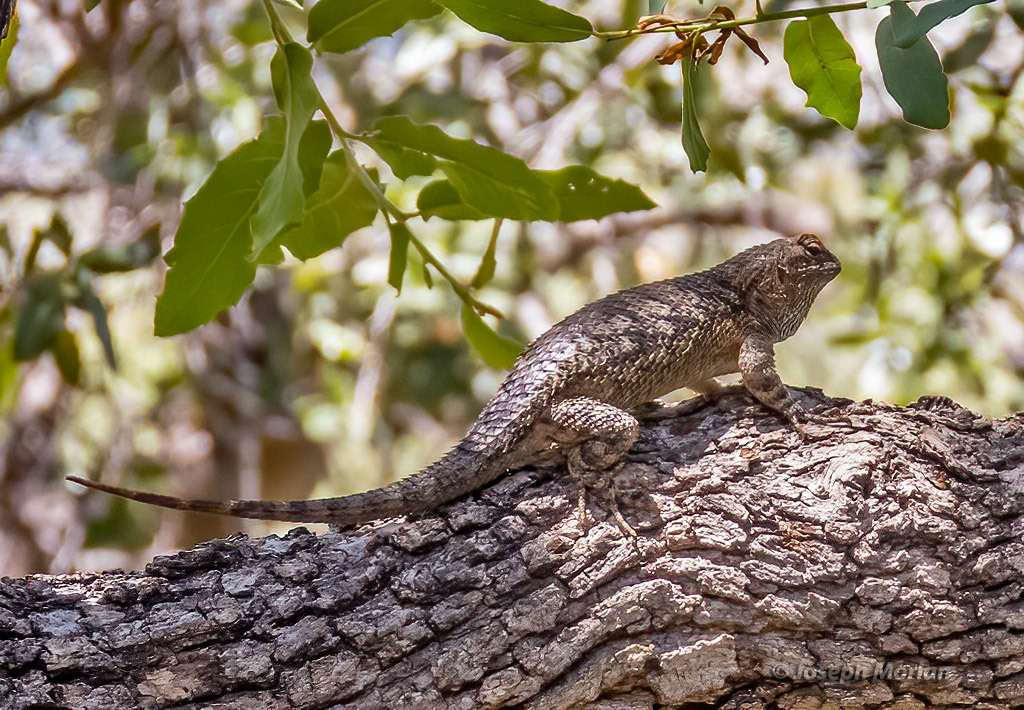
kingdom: Animalia
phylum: Chordata
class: Squamata
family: Phrynosomatidae
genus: Sceloporus
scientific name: Sceloporus clarkii
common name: Clark's spiny lizard
